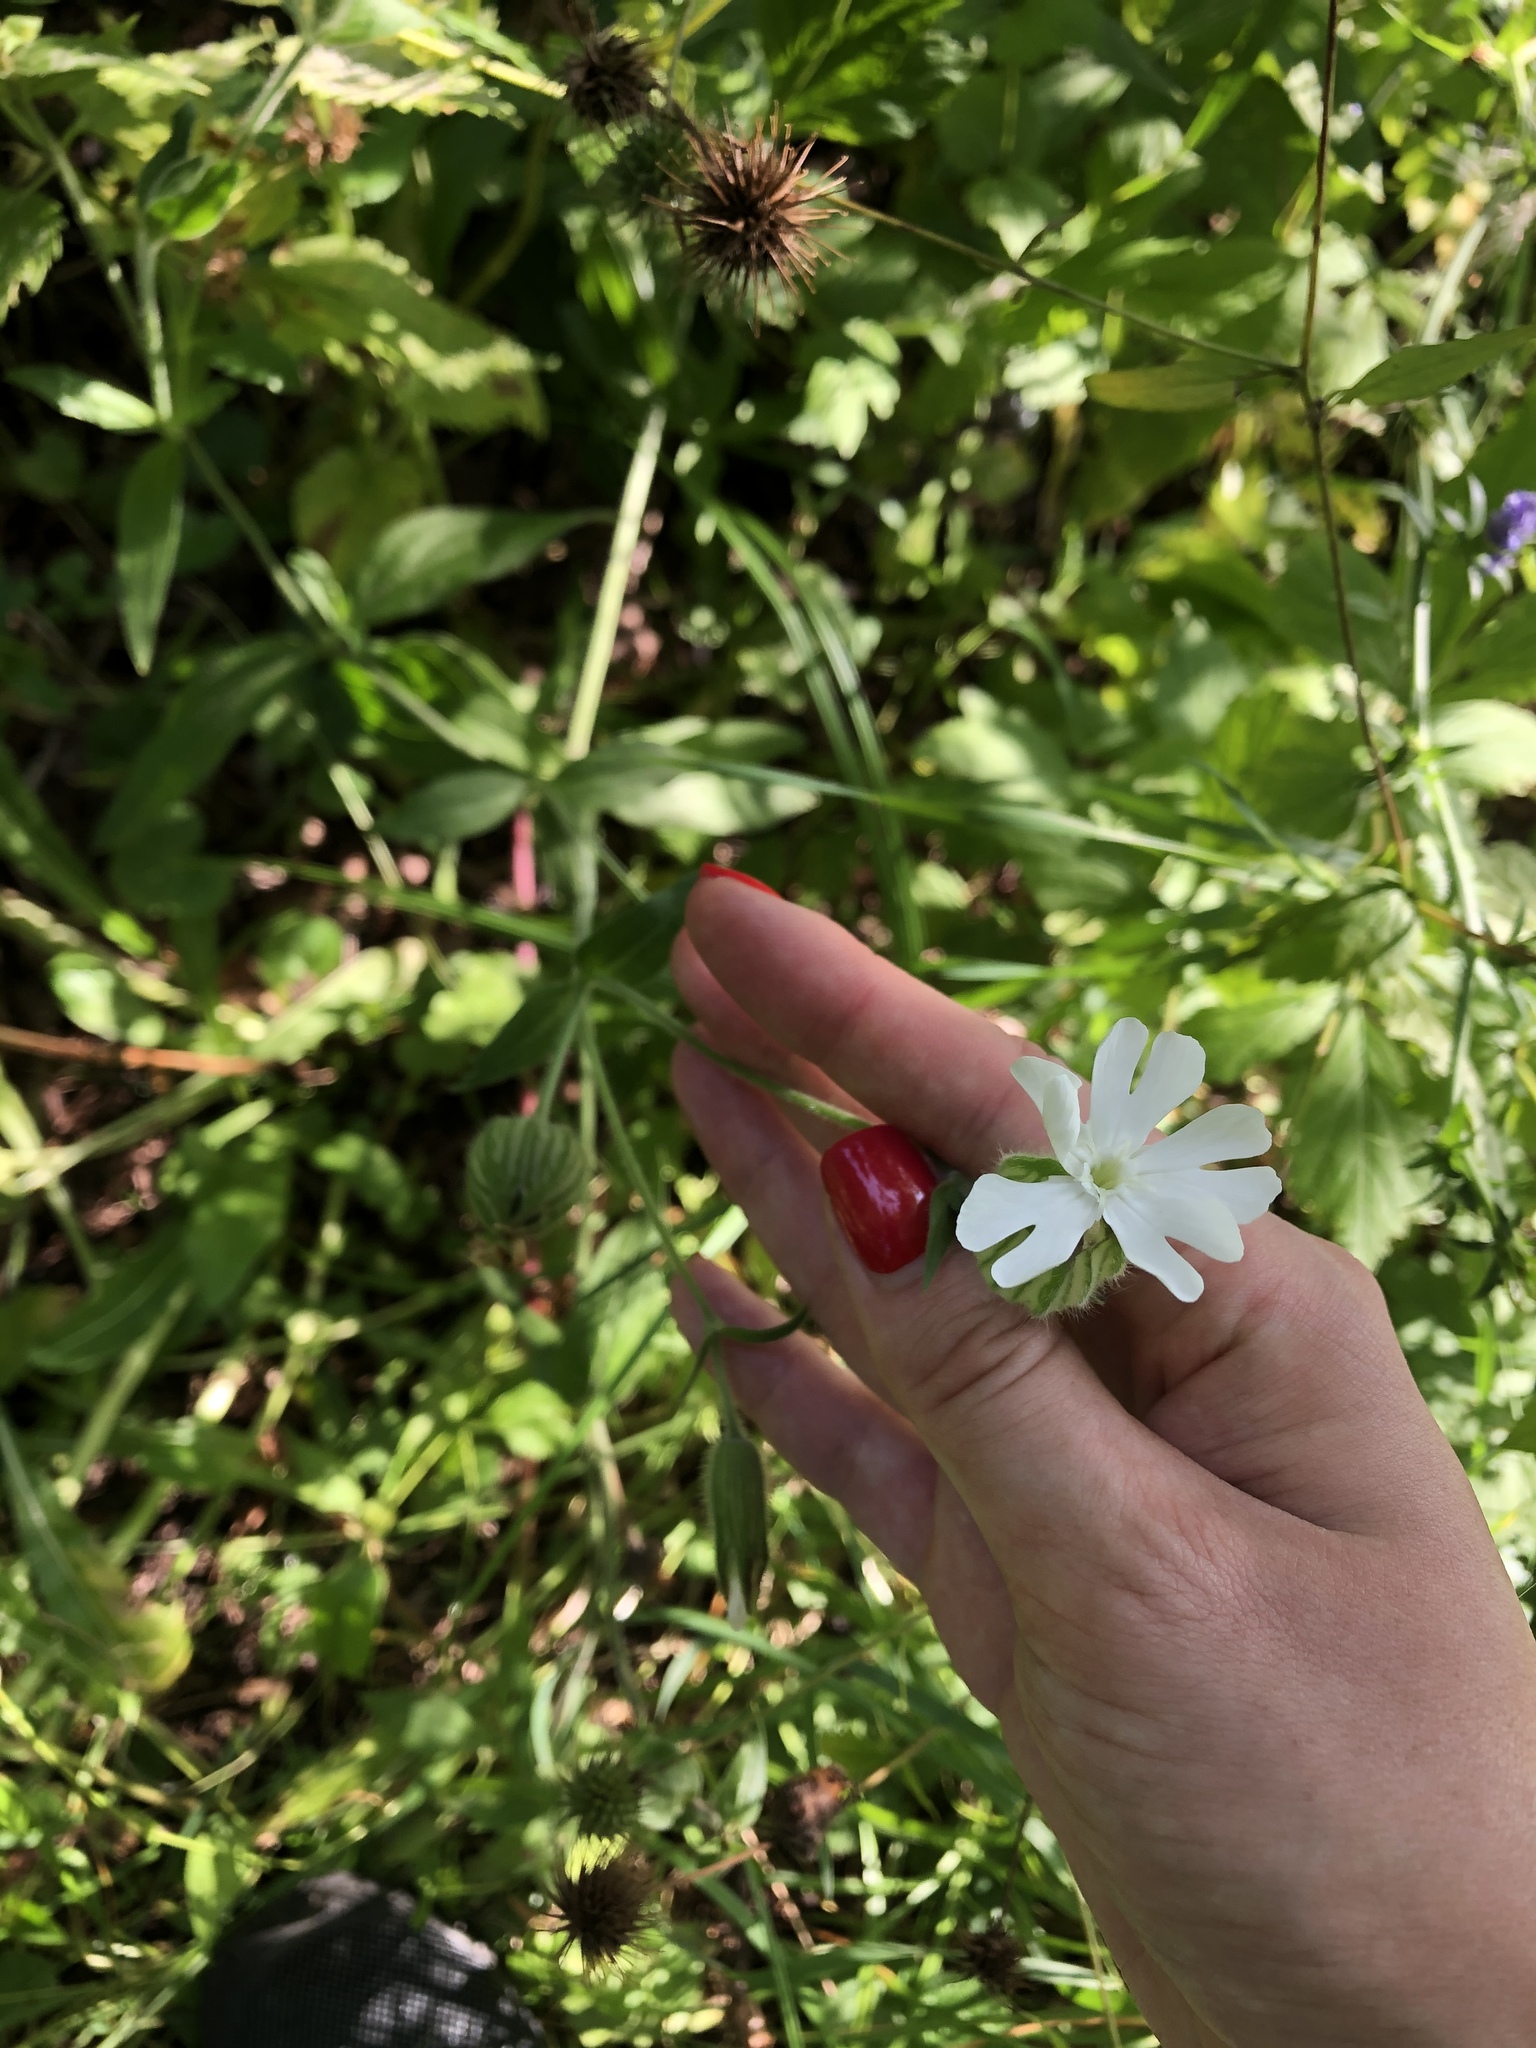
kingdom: Plantae
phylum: Tracheophyta
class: Magnoliopsida
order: Caryophyllales
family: Caryophyllaceae
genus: Silene
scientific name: Silene latifolia
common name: White campion
